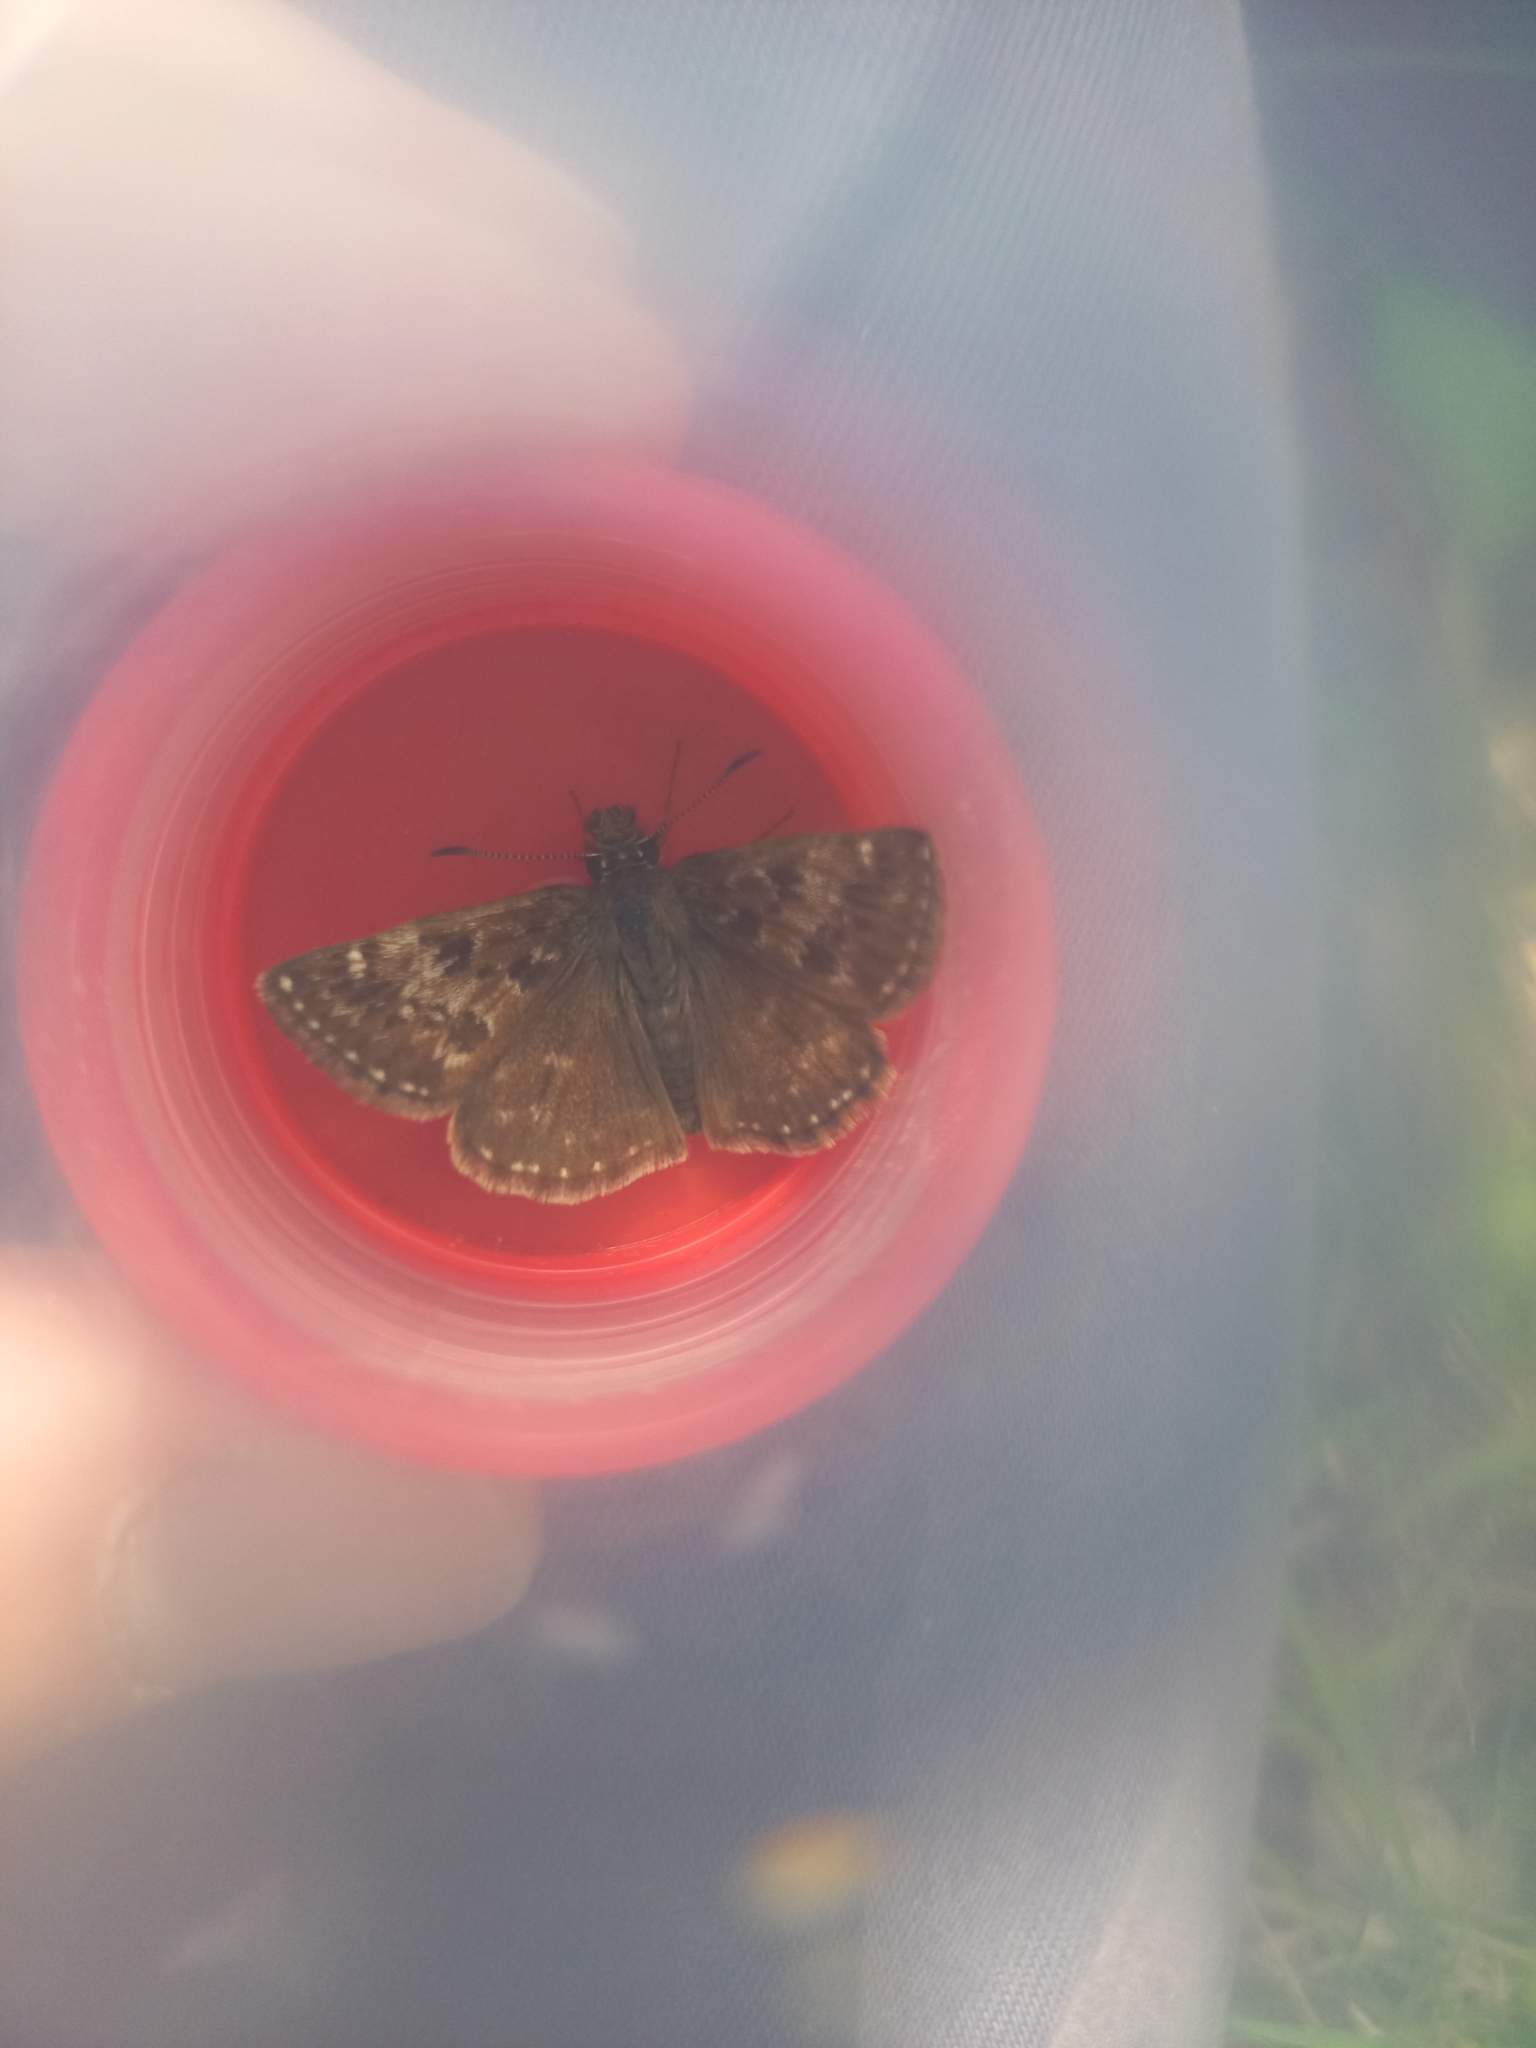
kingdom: Animalia
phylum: Arthropoda
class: Insecta
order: Lepidoptera
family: Hesperiidae
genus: Erynnis
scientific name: Erynnis tages
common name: Dingy skipper
